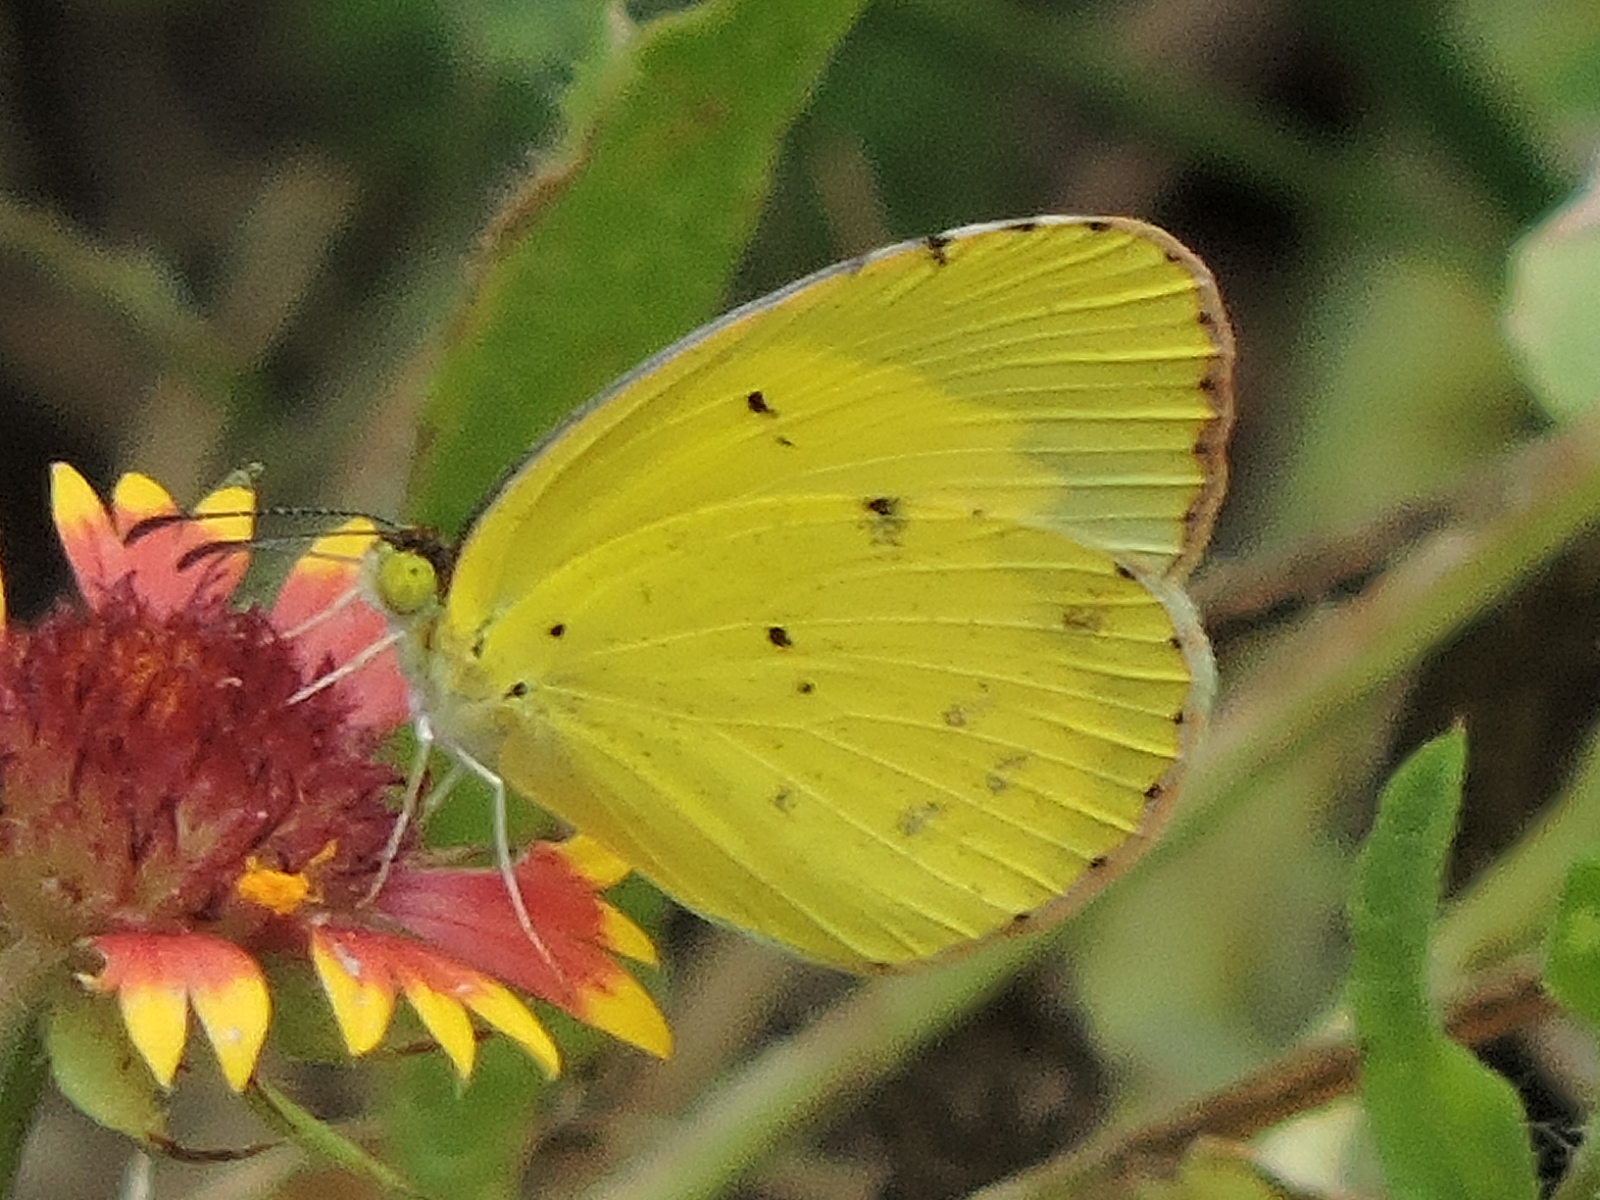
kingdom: Animalia
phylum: Arthropoda
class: Insecta
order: Lepidoptera
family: Pieridae
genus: Pyrisitia
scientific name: Pyrisitia lisa
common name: Little yellow
